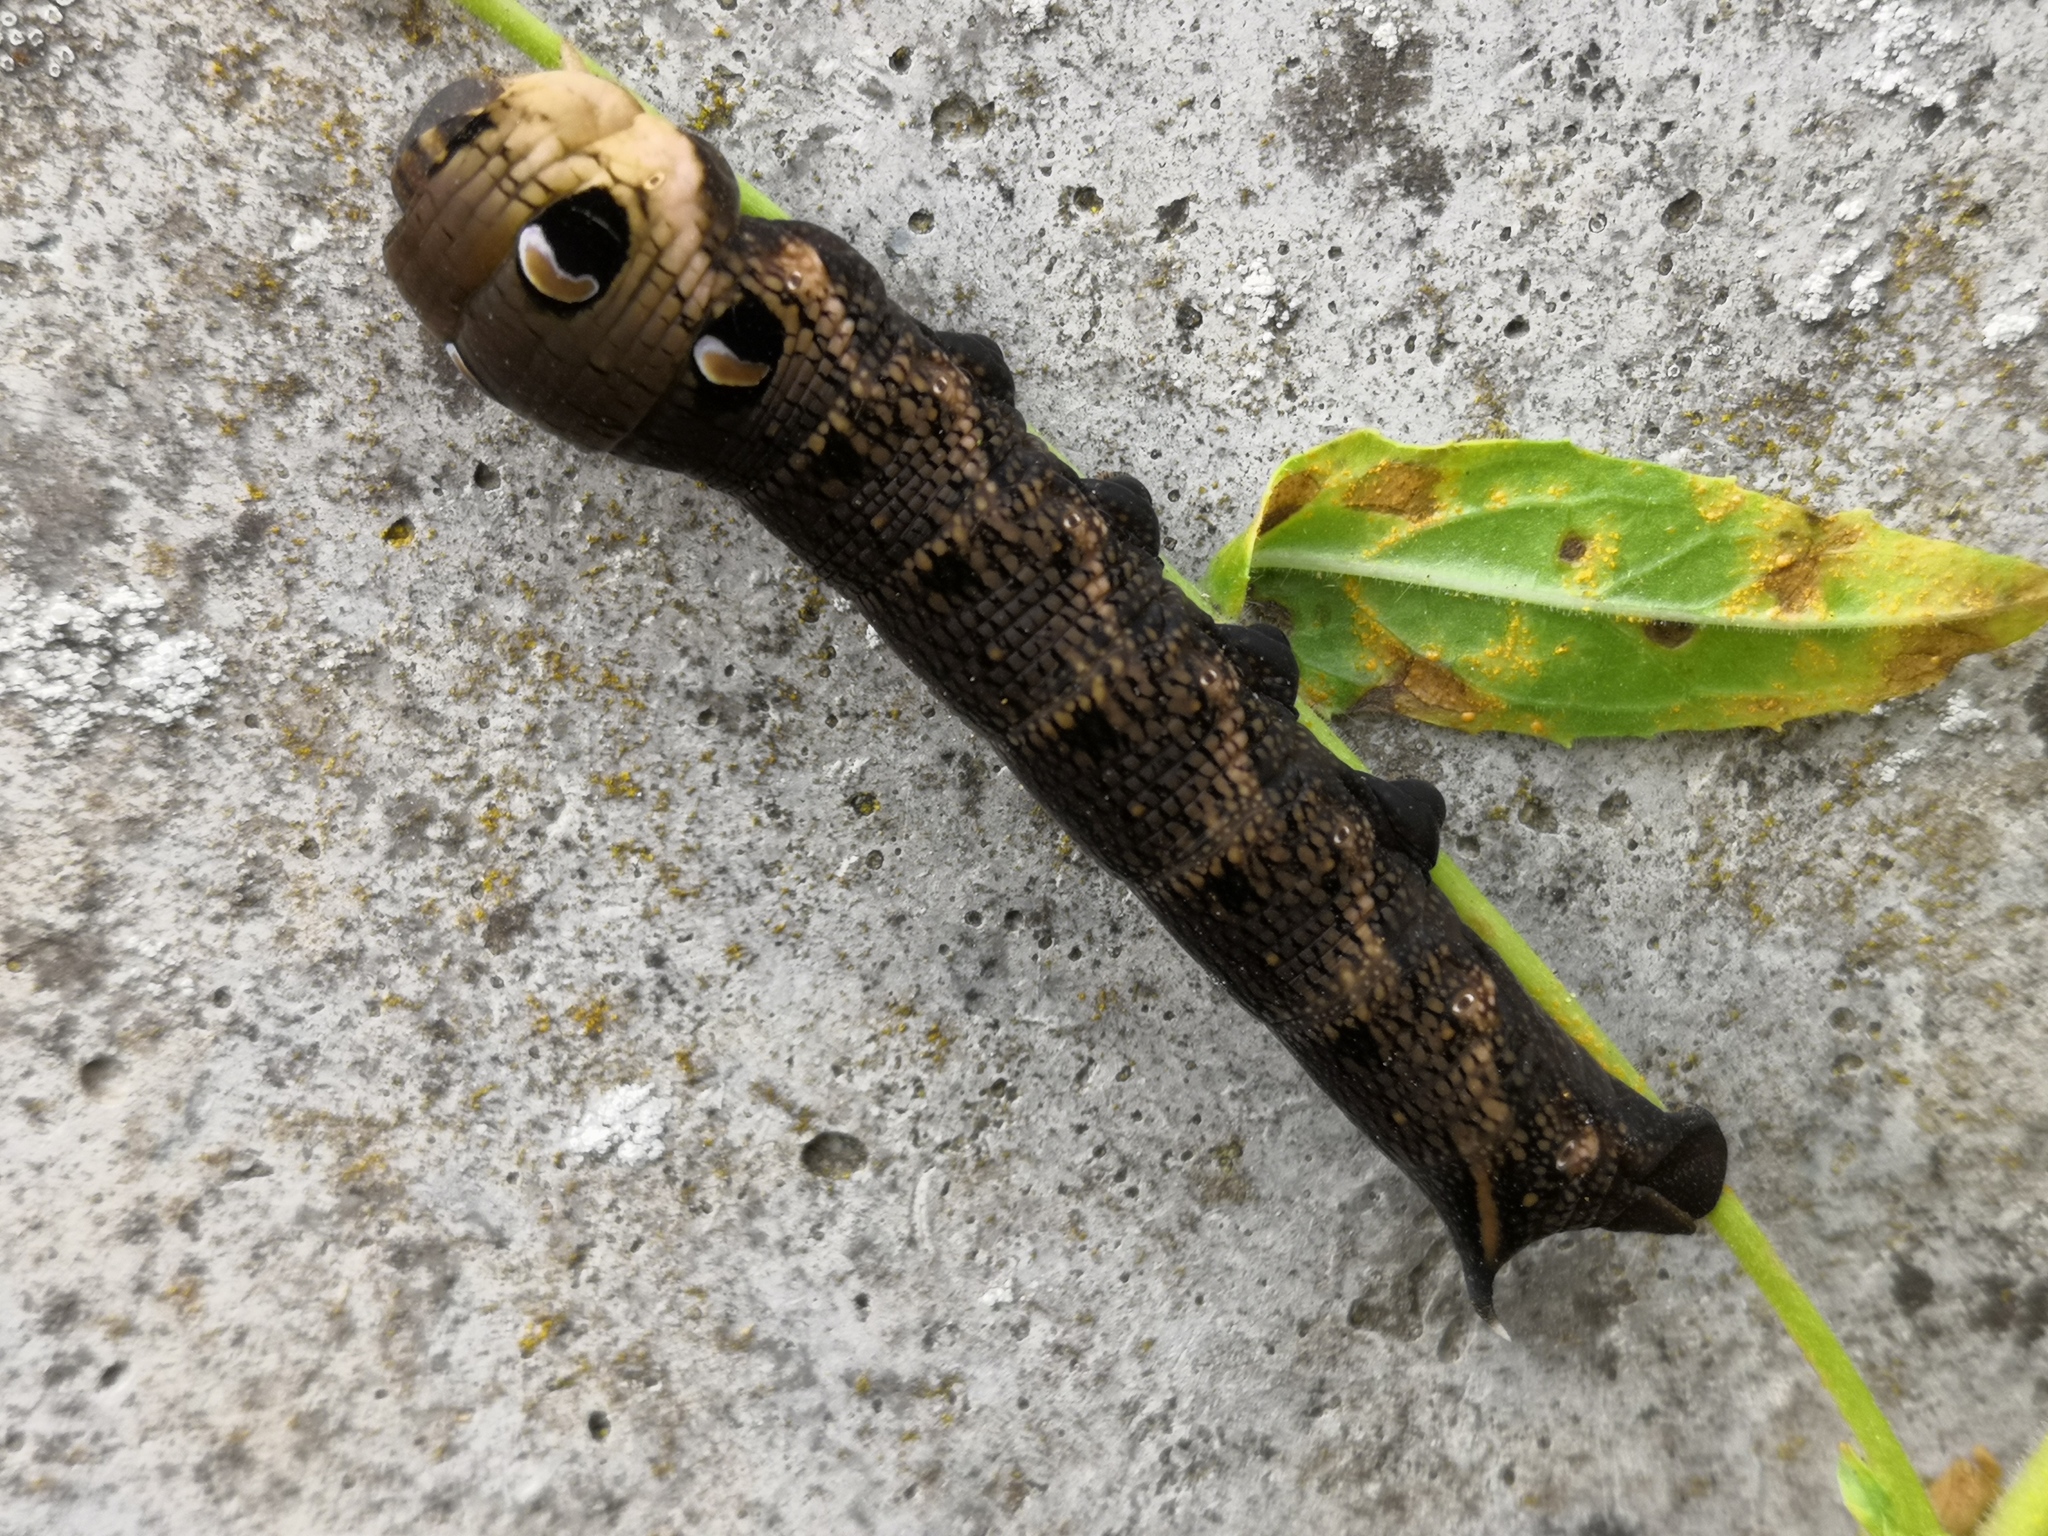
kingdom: Animalia
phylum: Arthropoda
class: Insecta
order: Lepidoptera
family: Sphingidae
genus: Deilephila
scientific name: Deilephila elpenor
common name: Elephant hawk-moth
